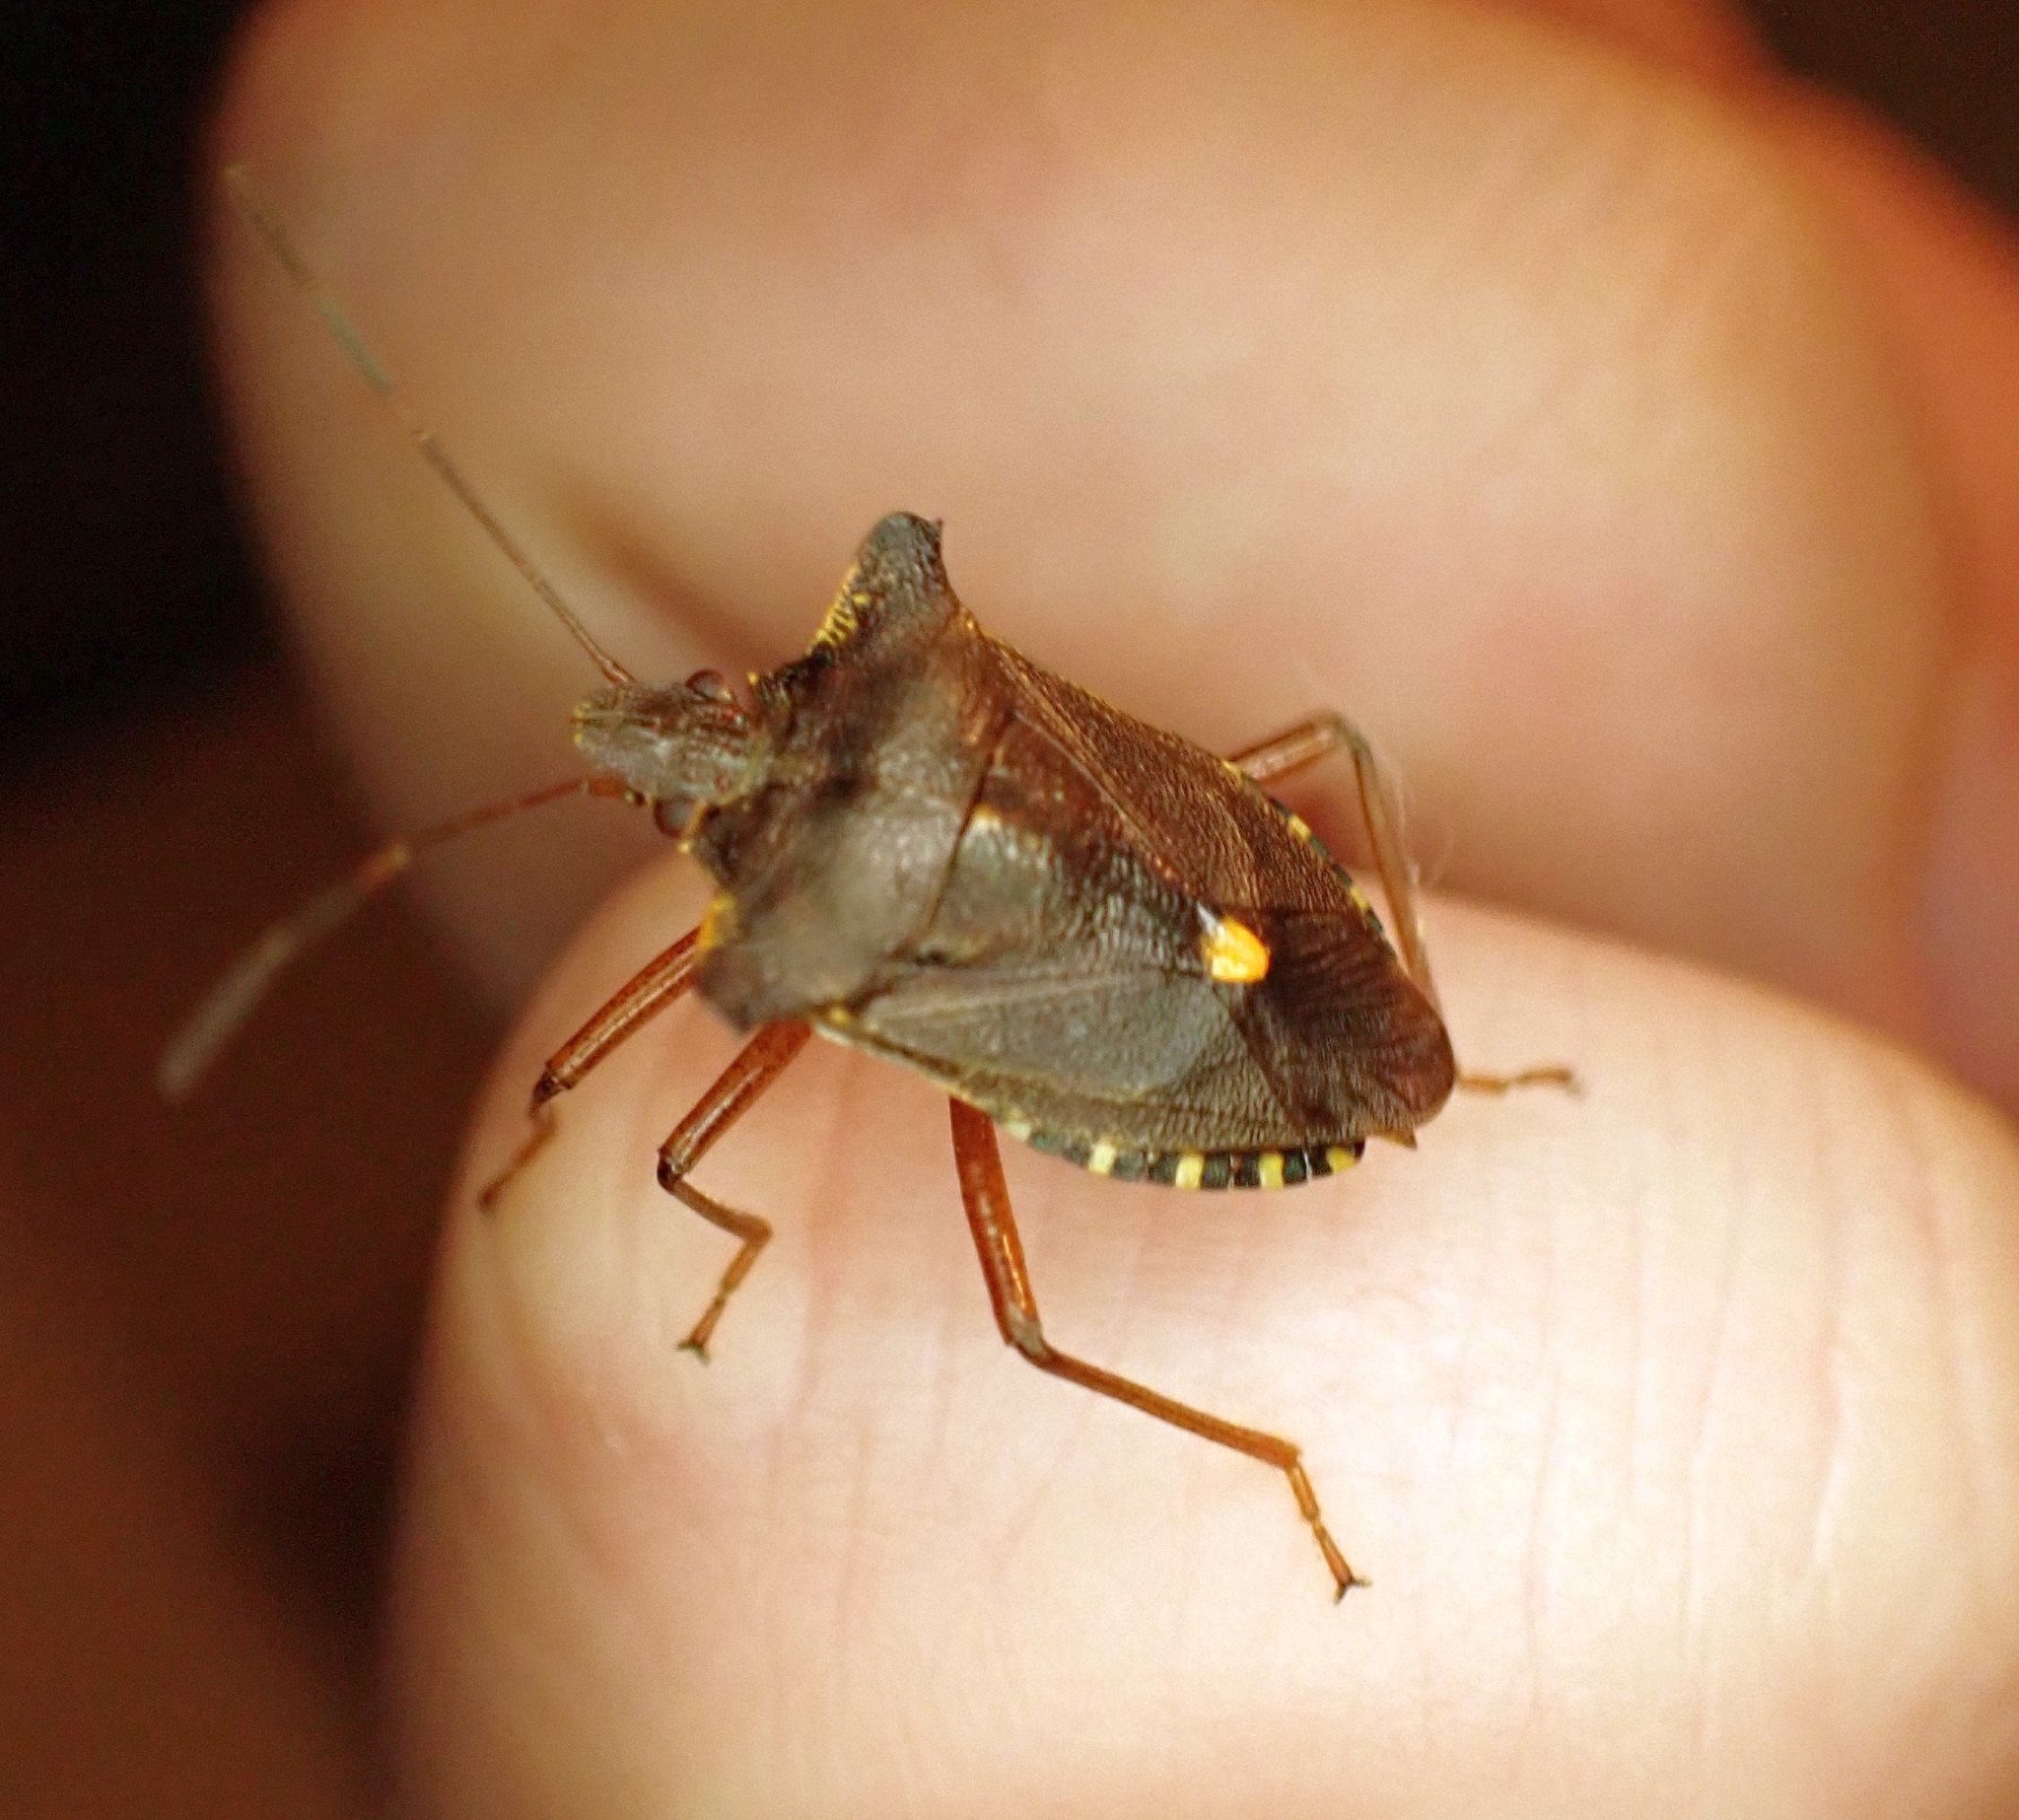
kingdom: Animalia
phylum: Arthropoda
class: Insecta
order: Hemiptera
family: Pentatomidae
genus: Pentatoma
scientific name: Pentatoma rufipes
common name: Forest bug
